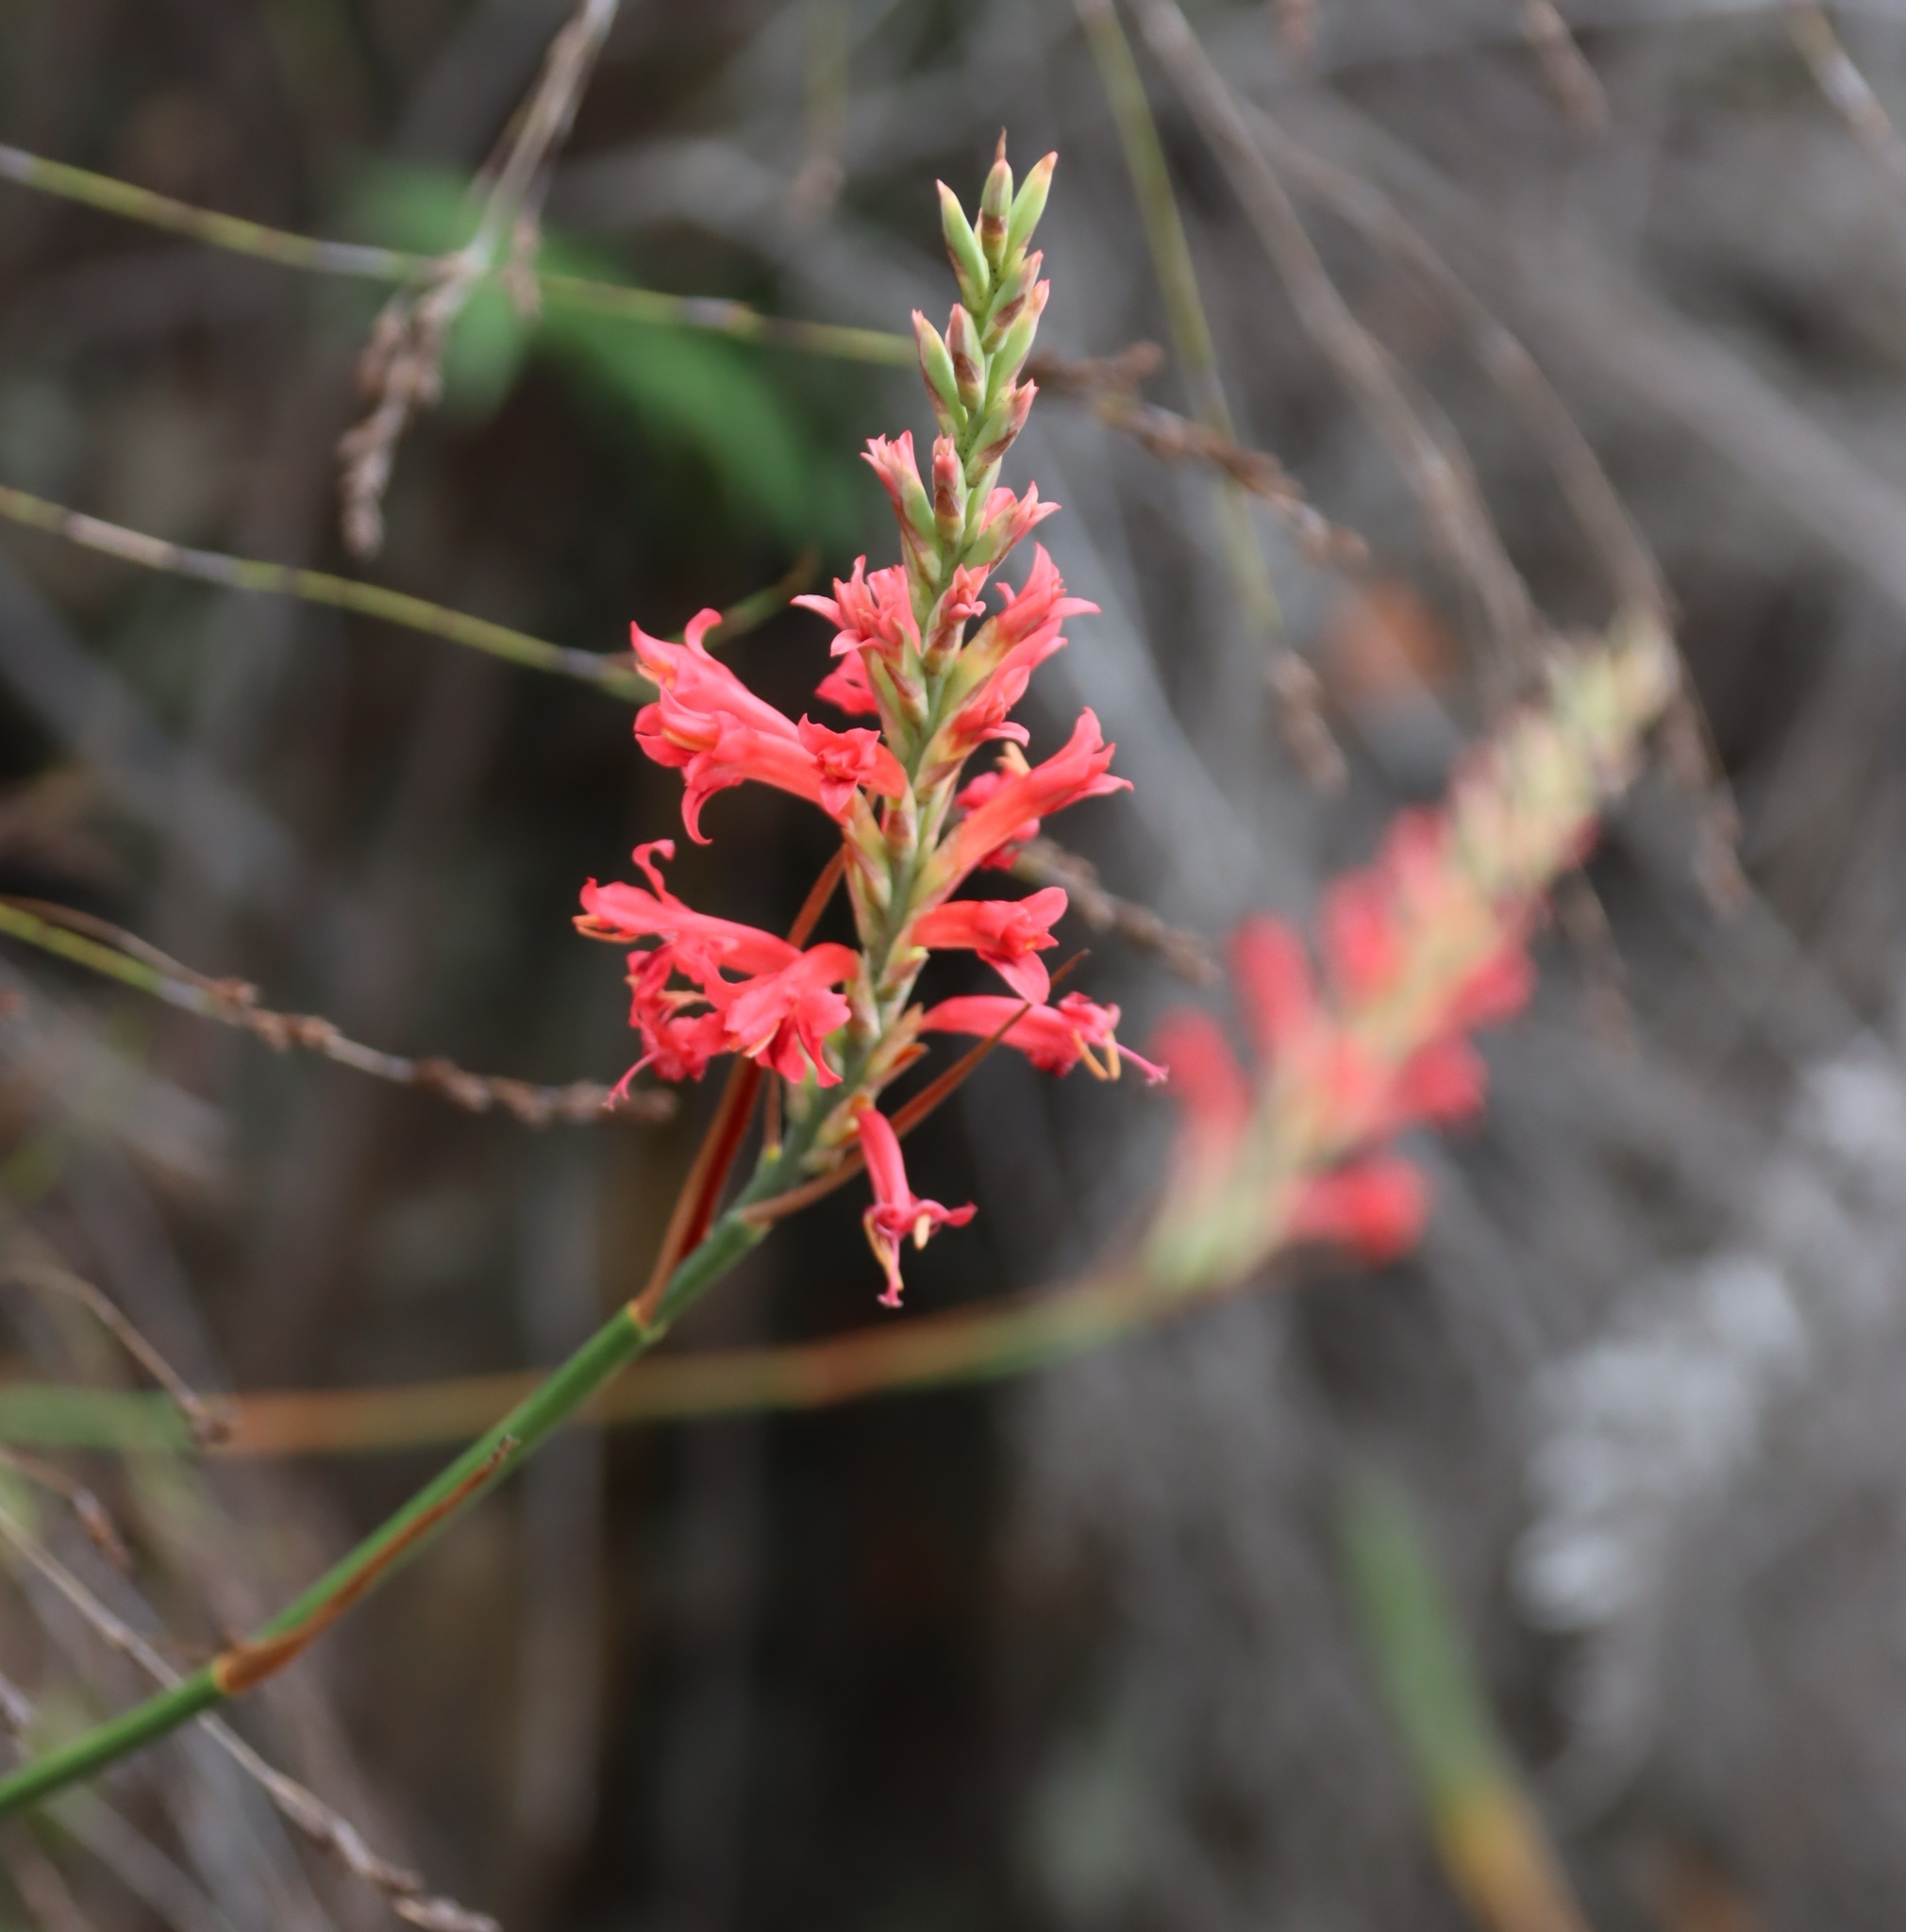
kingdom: Plantae
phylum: Tracheophyta
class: Liliopsida
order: Asparagales
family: Iridaceae
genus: Tritoniopsis
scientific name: Tritoniopsis triticea
